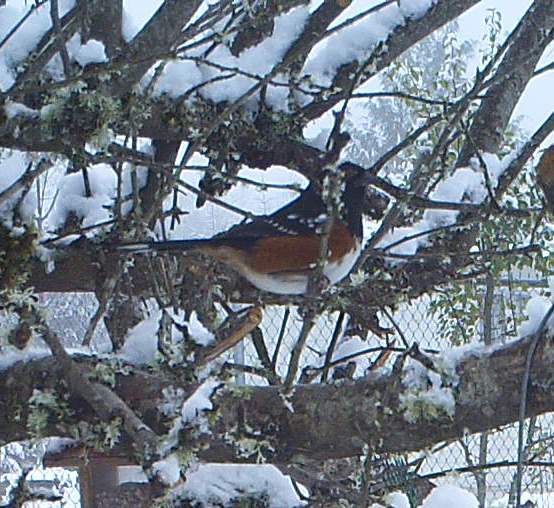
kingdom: Animalia
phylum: Chordata
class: Aves
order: Passeriformes
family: Passerellidae
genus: Pipilo
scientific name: Pipilo maculatus
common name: Spotted towhee
